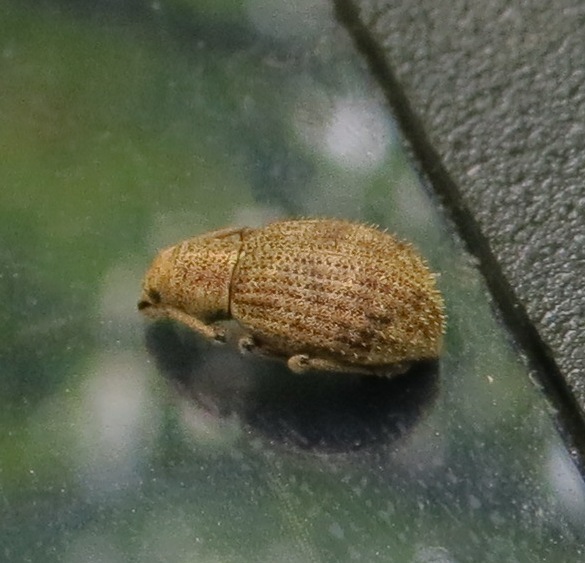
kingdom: Animalia
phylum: Arthropoda
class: Insecta
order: Coleoptera
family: Curculionidae
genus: Sciaphilus
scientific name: Sciaphilus asperatus
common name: Weevil
